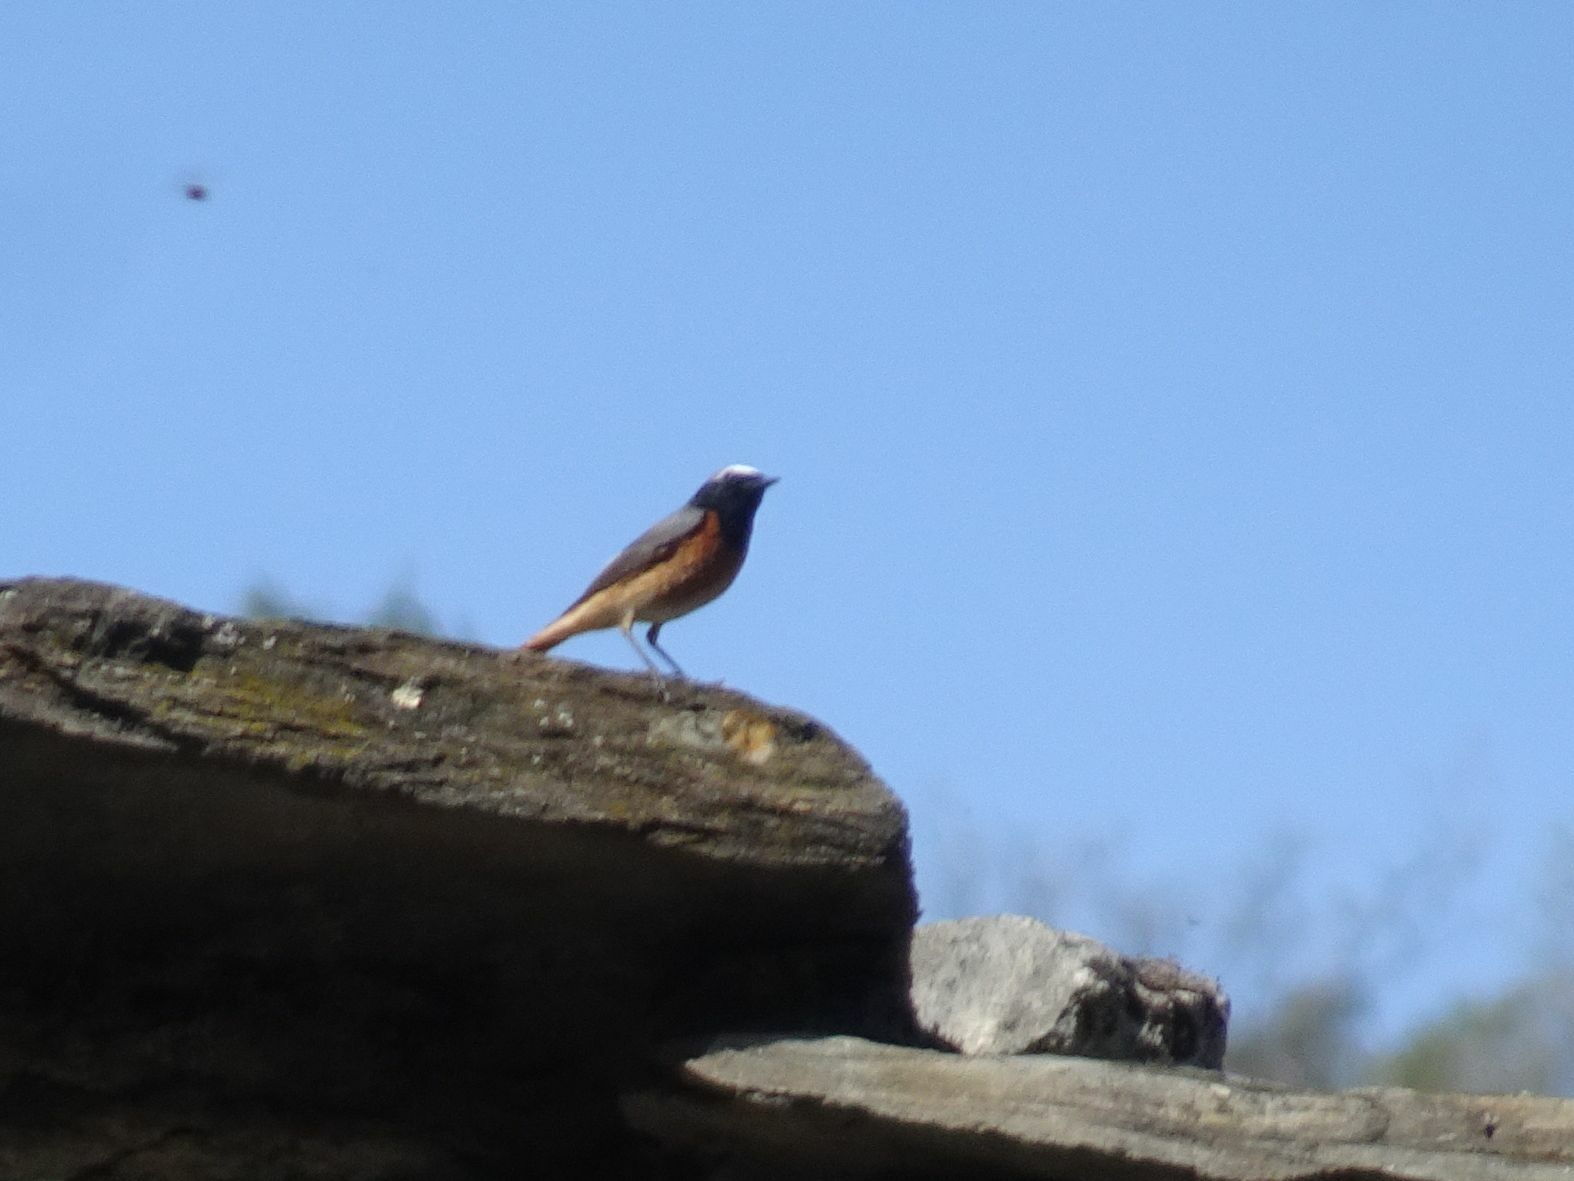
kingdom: Animalia
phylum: Chordata
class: Aves
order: Passeriformes
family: Muscicapidae
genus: Phoenicurus
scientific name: Phoenicurus phoenicurus
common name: Common redstart
